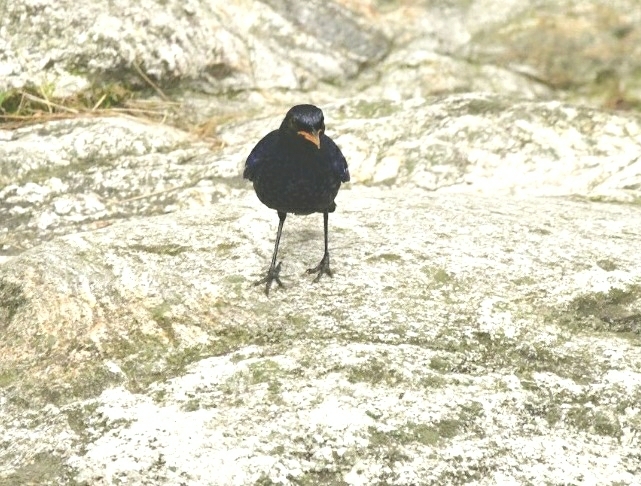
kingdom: Animalia
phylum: Chordata
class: Aves
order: Passeriformes
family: Muscicapidae
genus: Myophonus
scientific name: Myophonus caeruleus
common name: Blue whistling-thrush
